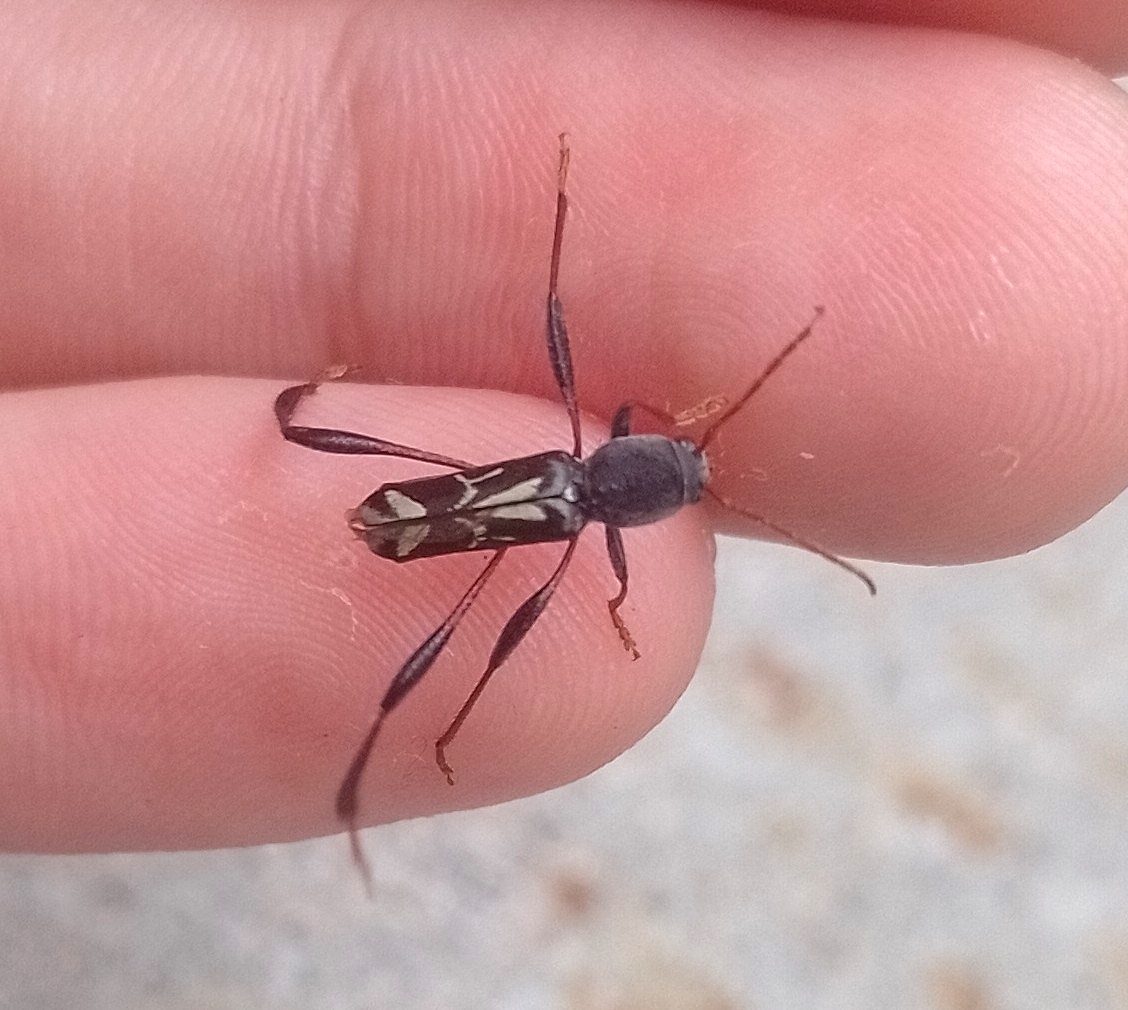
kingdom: Animalia
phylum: Arthropoda
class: Insecta
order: Coleoptera
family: Cerambycidae
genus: Neoclytus
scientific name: Neoclytus ypsilon
